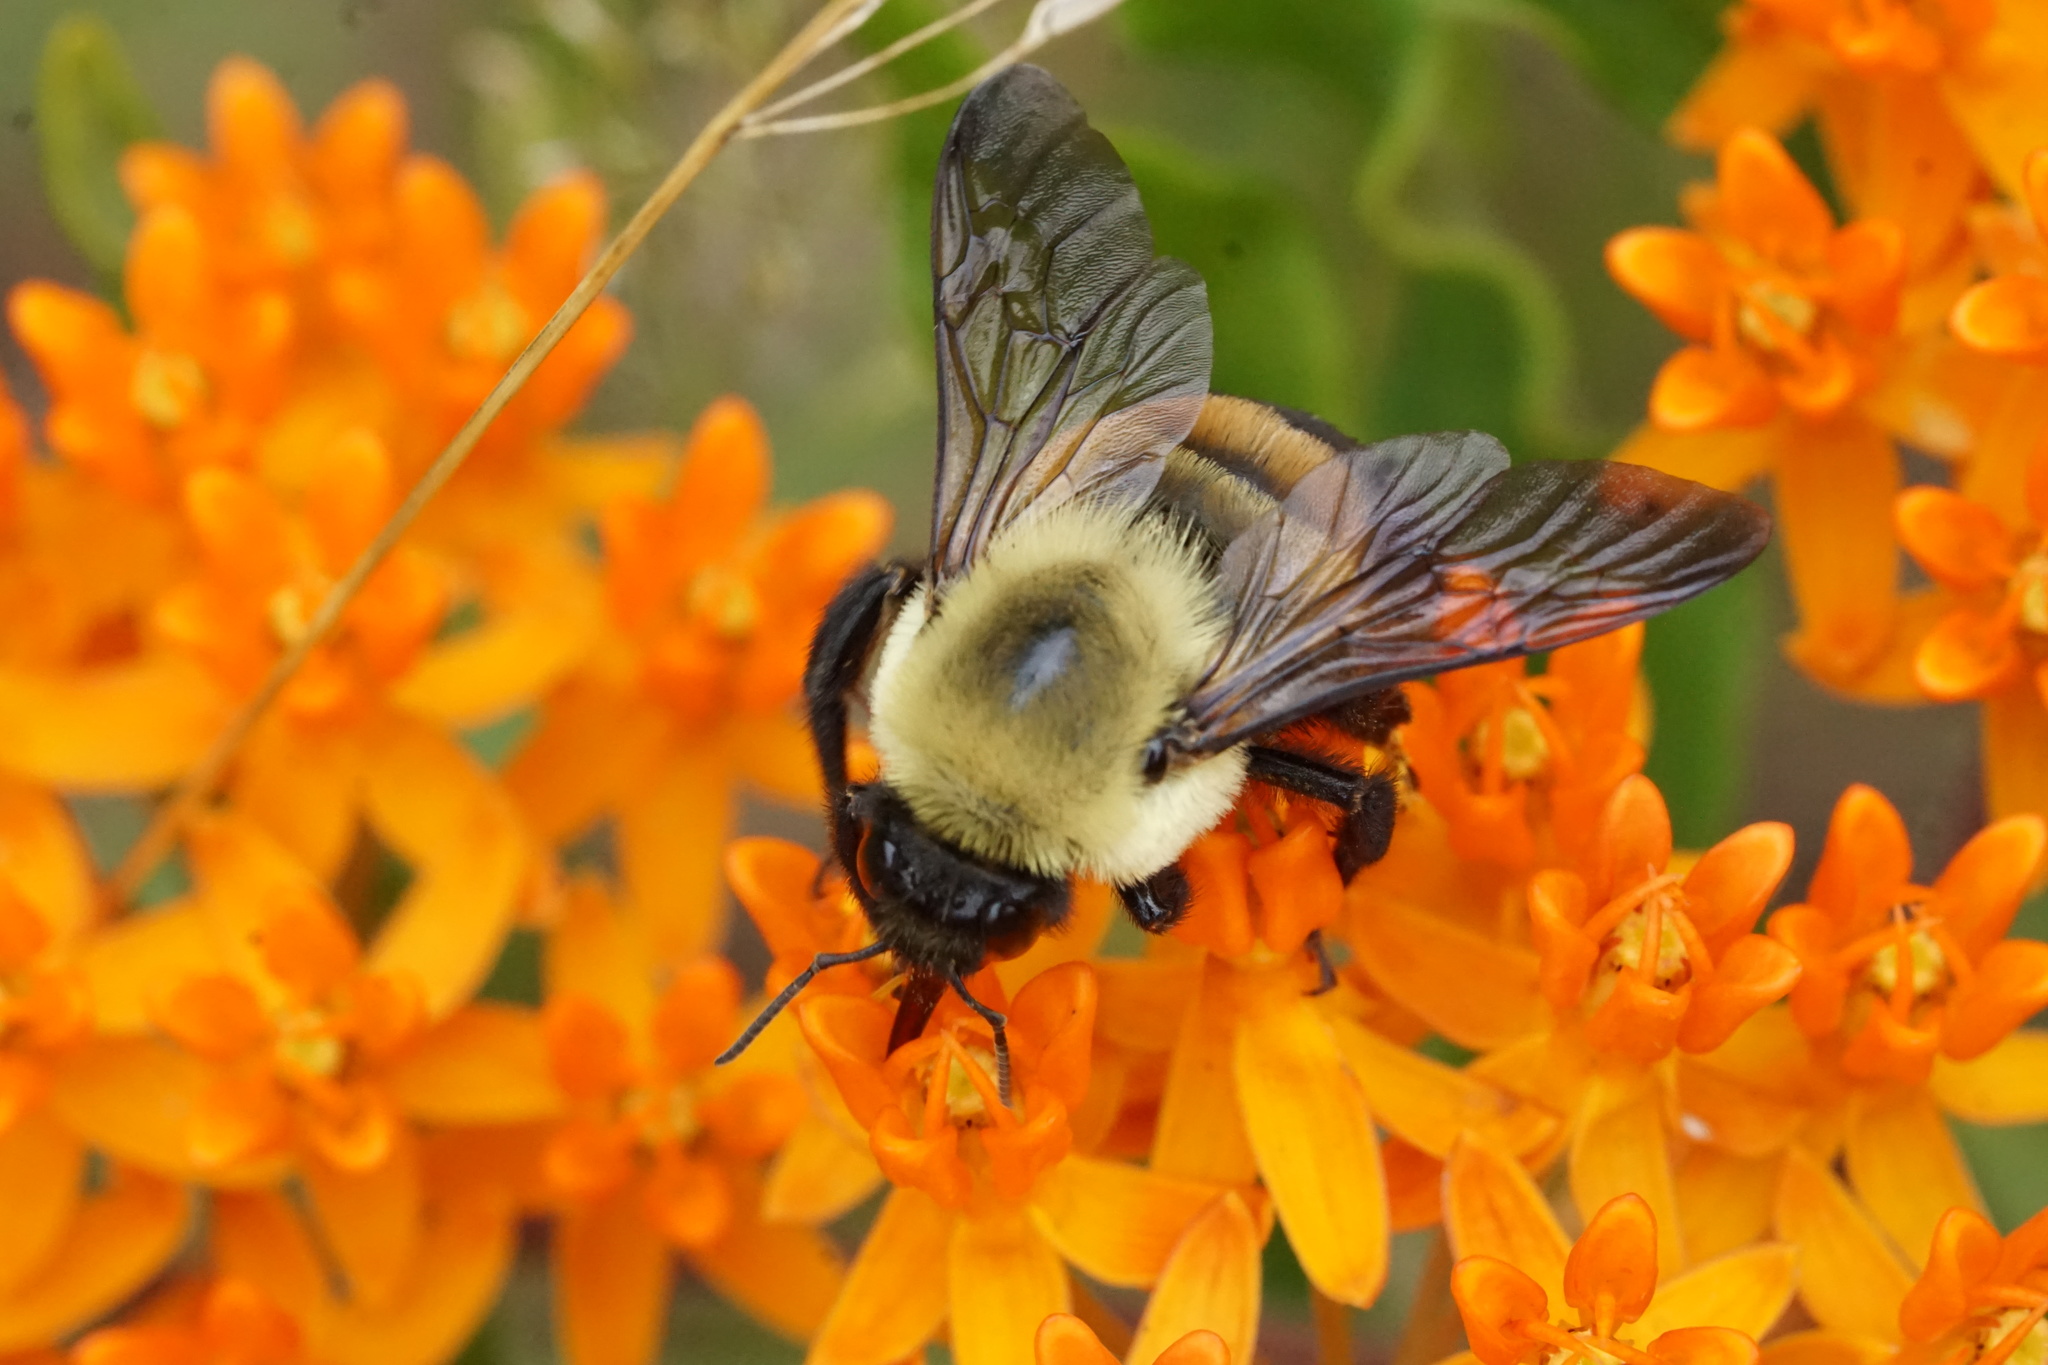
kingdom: Animalia
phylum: Arthropoda
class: Insecta
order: Hymenoptera
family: Apidae
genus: Bombus
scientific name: Bombus griseocollis
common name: Brown-belted bumble bee
